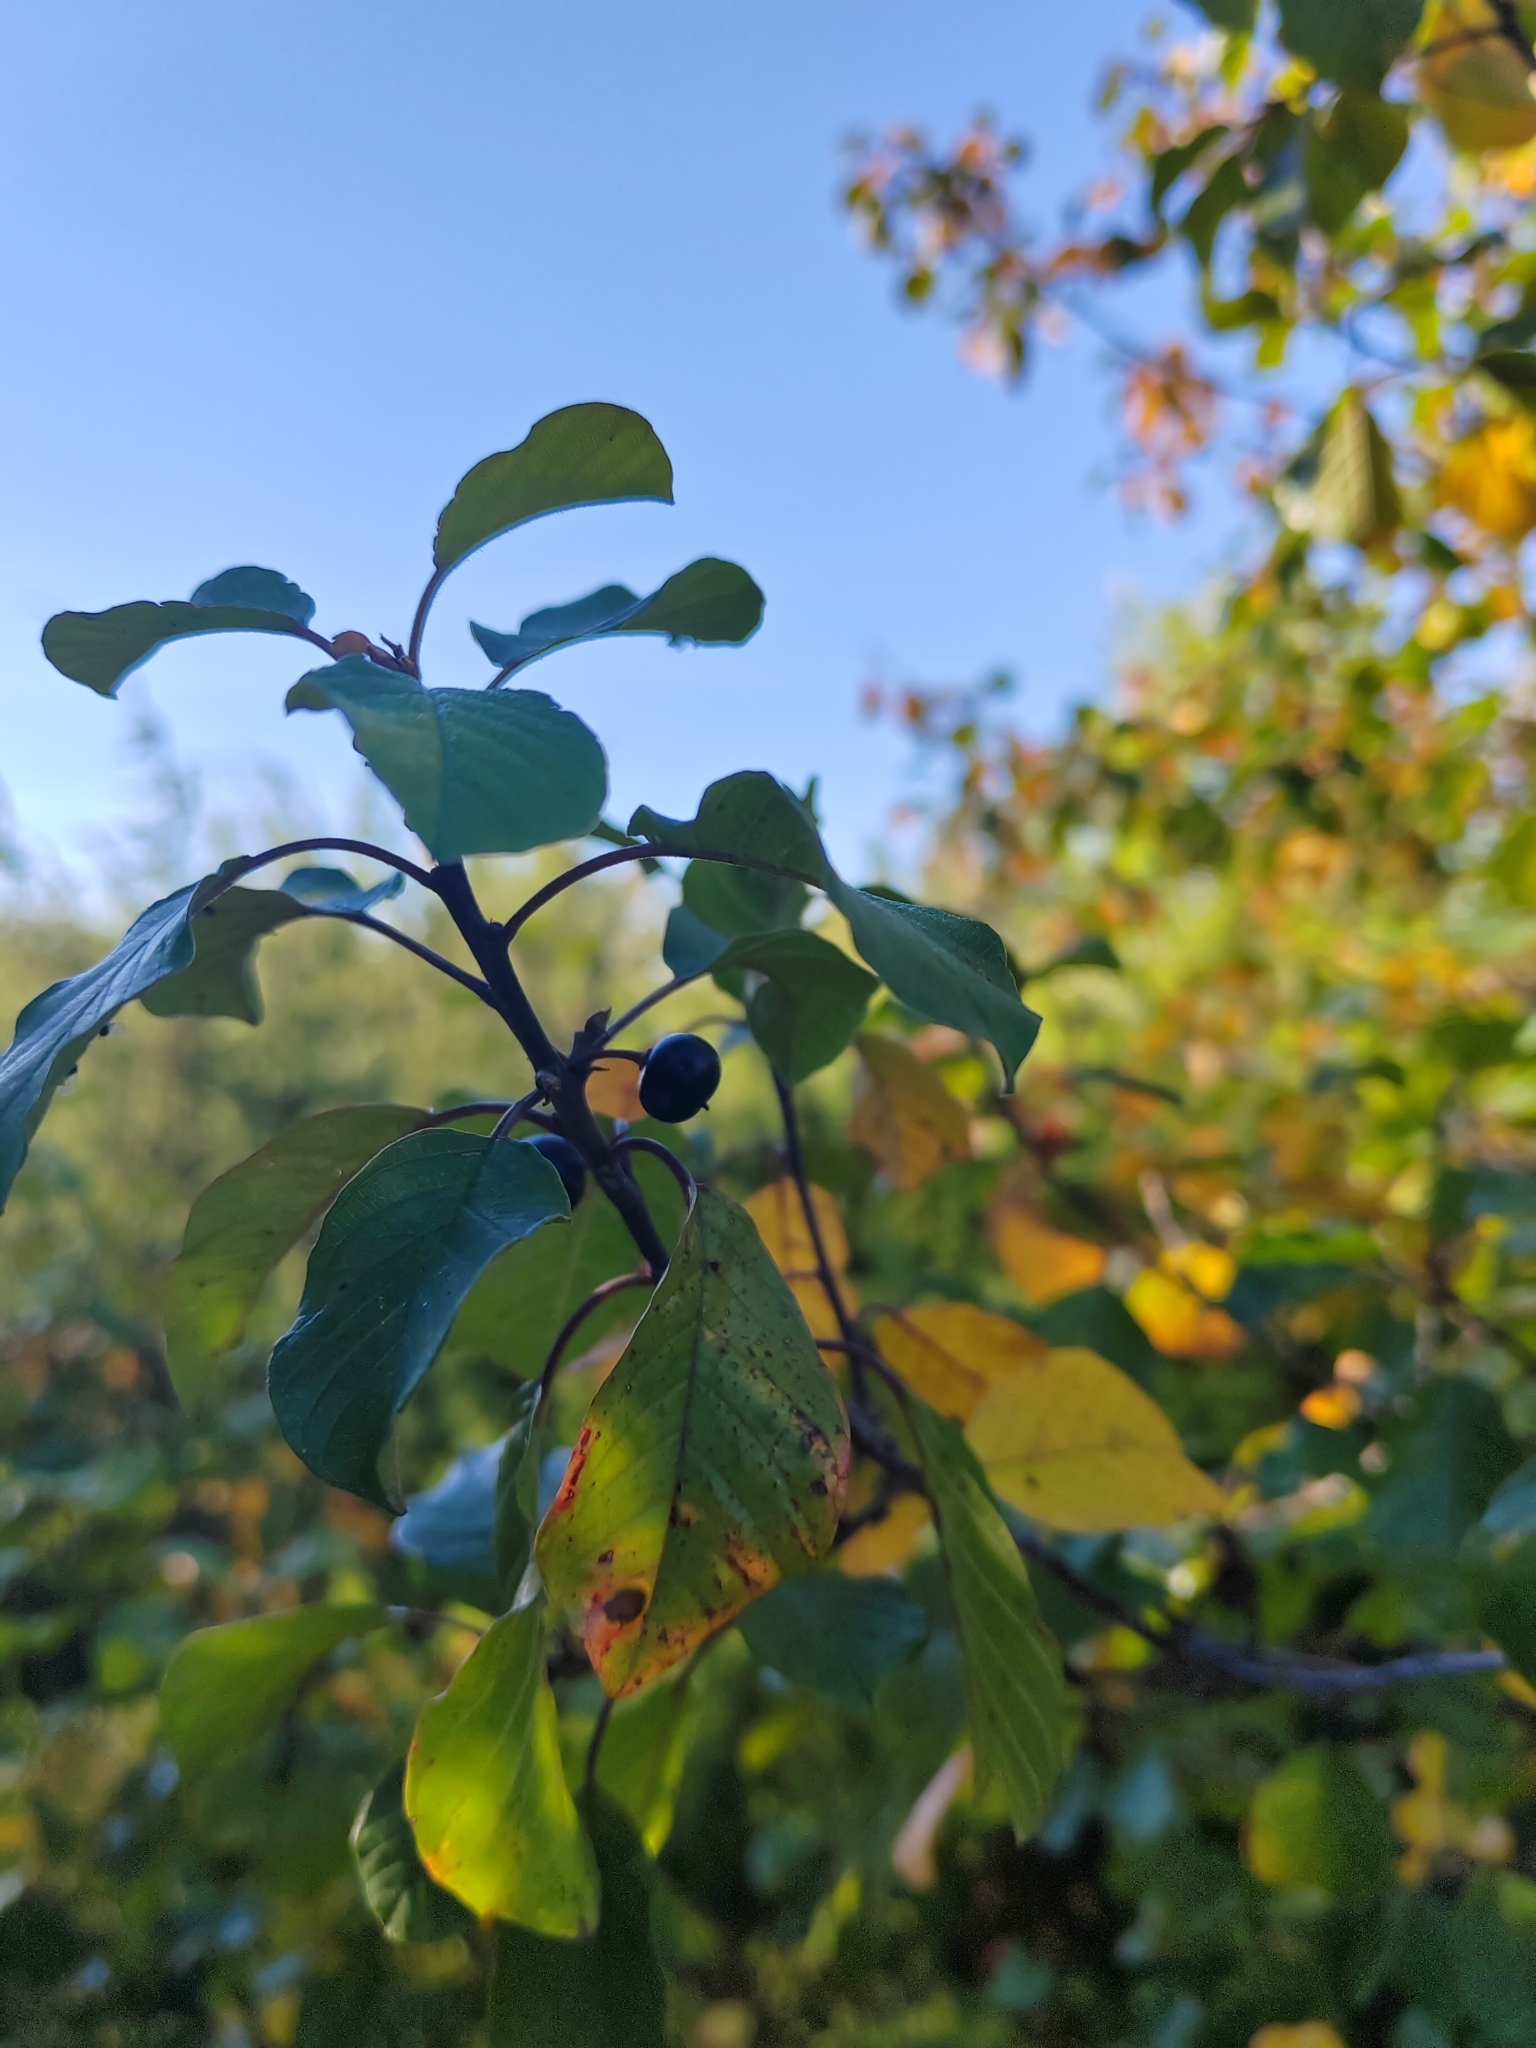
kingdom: Plantae
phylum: Tracheophyta
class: Magnoliopsida
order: Rosales
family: Rhamnaceae
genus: Frangula
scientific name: Frangula alnus
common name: Alder buckthorn
